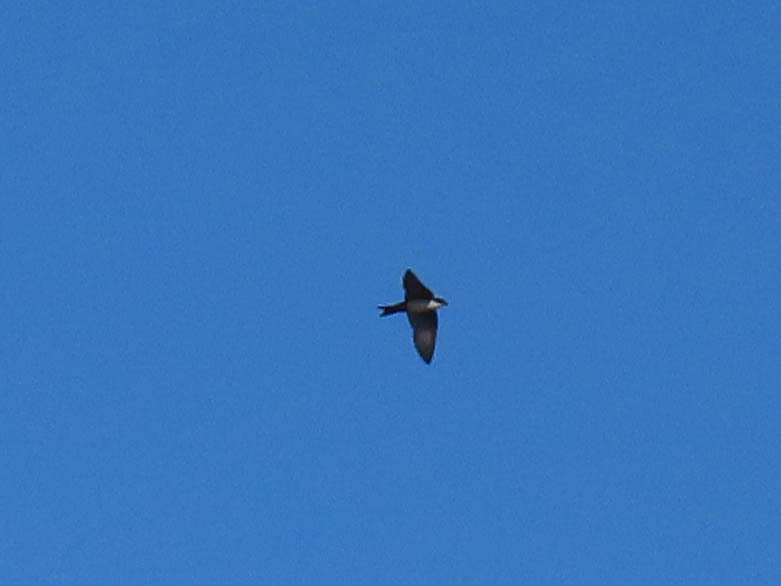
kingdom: Animalia
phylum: Chordata
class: Aves
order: Passeriformes
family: Hirundinidae
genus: Notiochelidon
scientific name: Notiochelidon cyanoleuca
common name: Blue-and-white swallow
